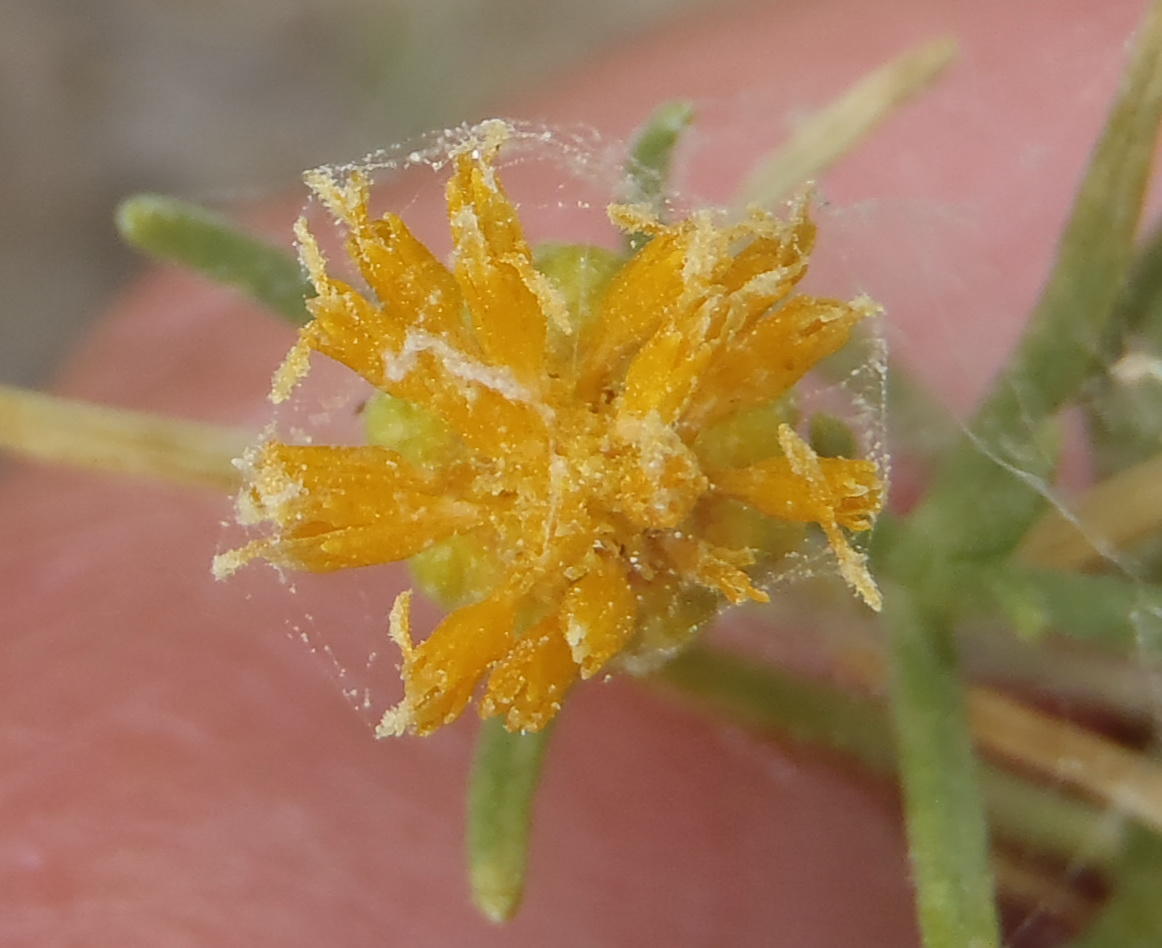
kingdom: Plantae
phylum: Tracheophyta
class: Magnoliopsida
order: Asterales
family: Asteraceae
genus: Pteronia
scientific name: Pteronia pallens
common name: Scholtzbush
